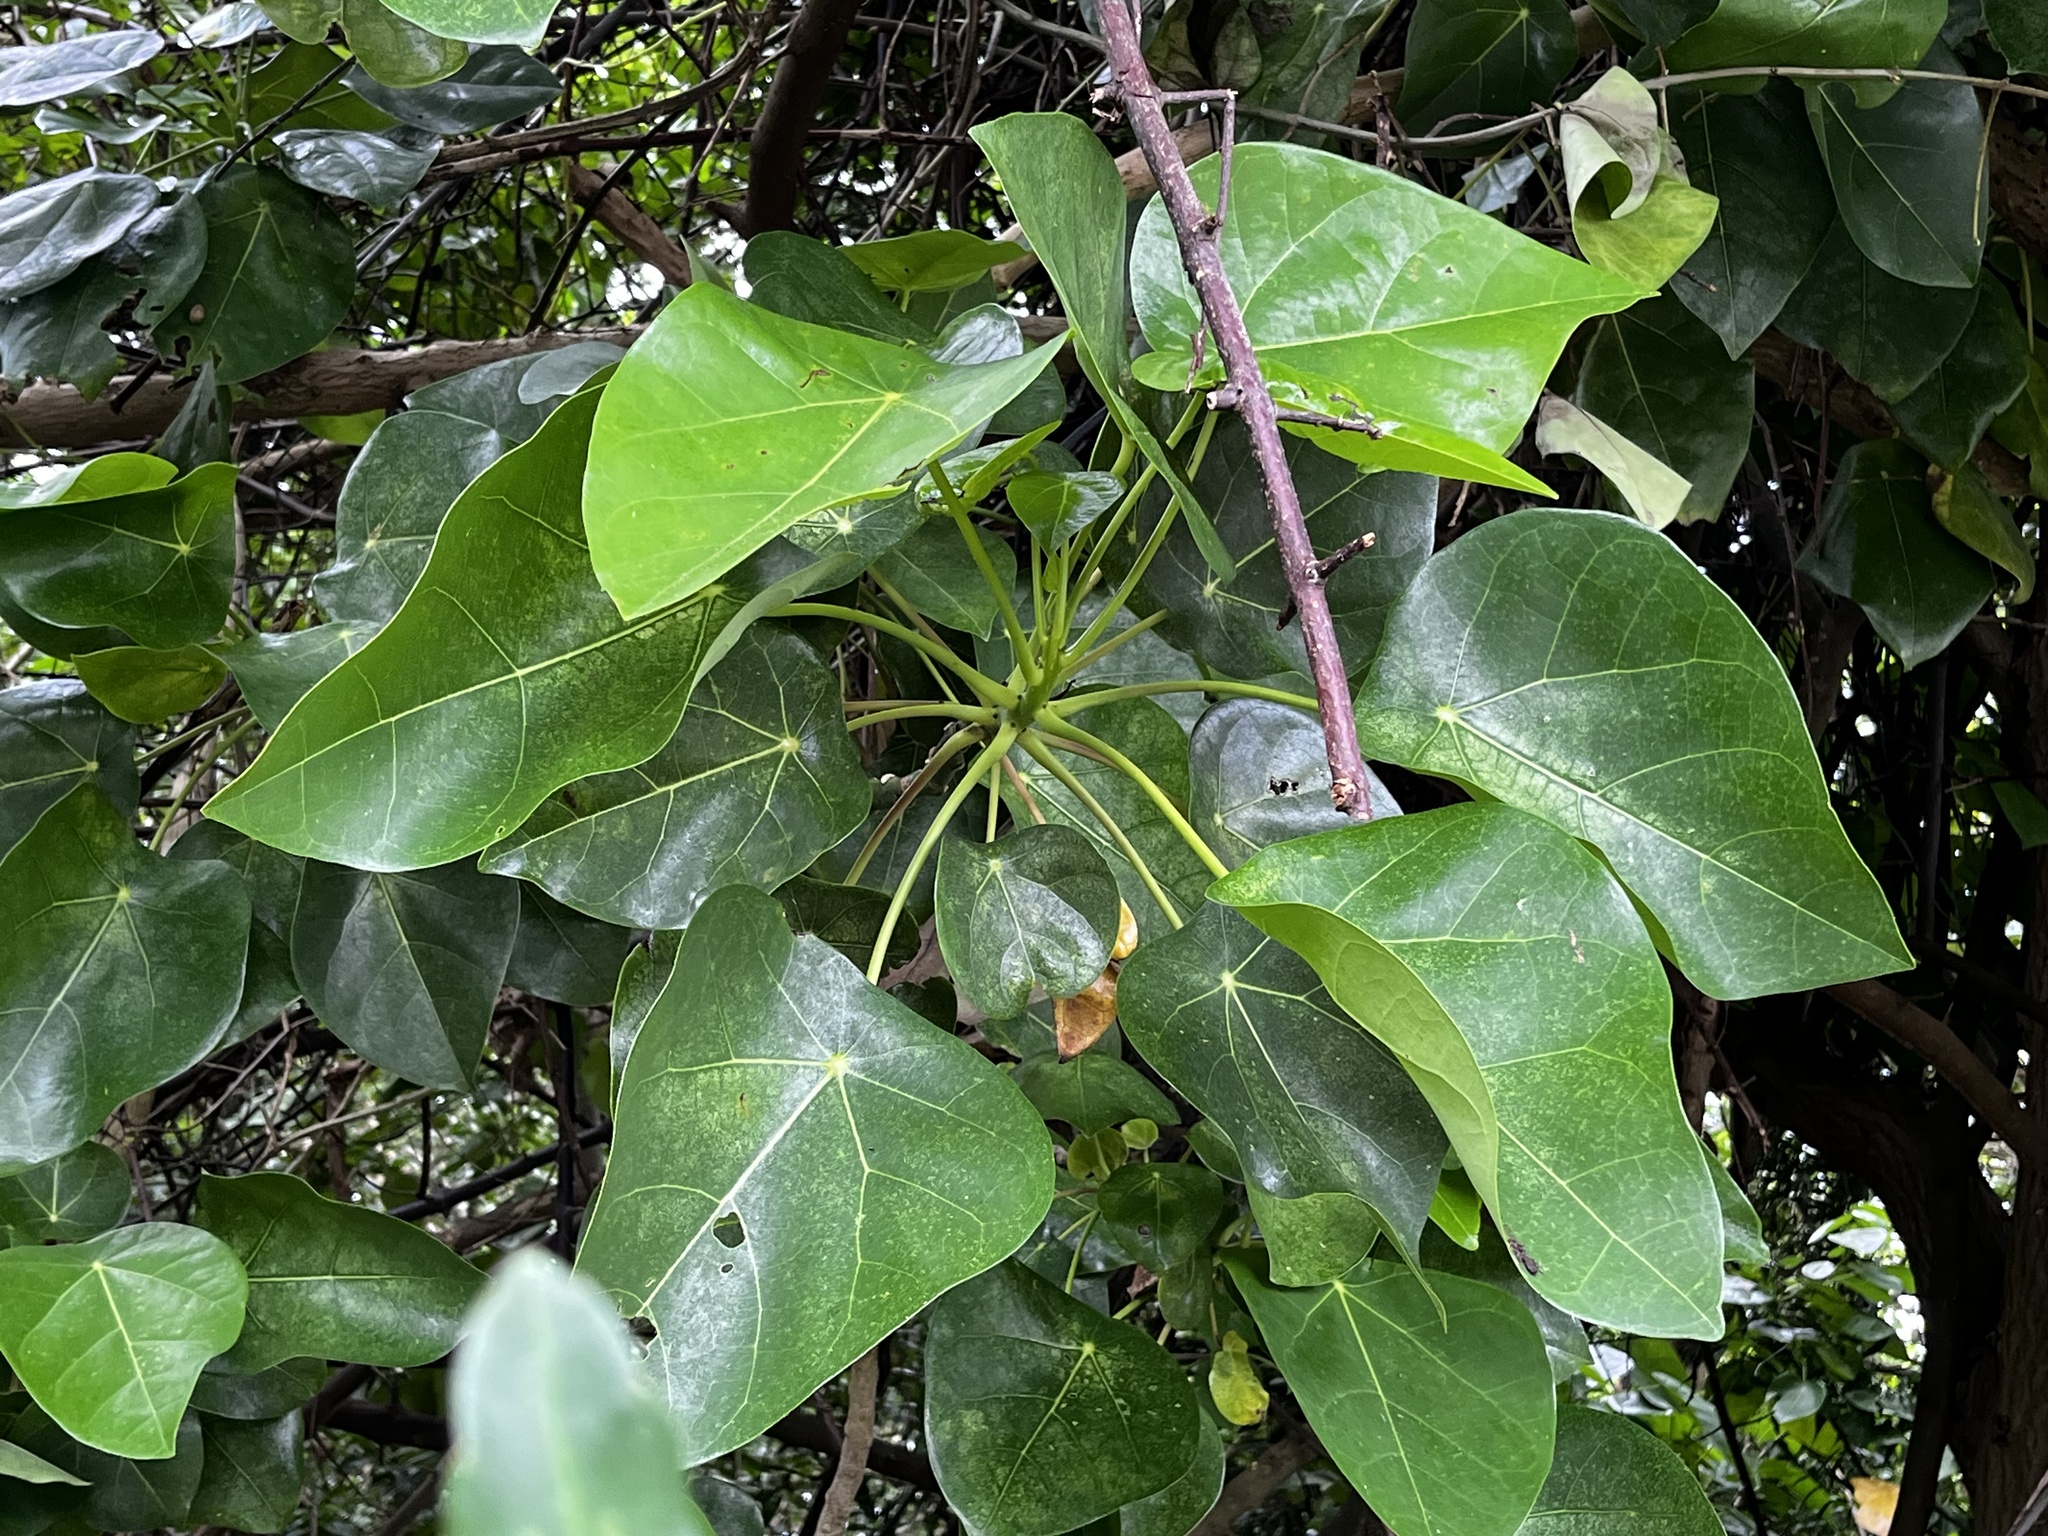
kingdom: Plantae
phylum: Tracheophyta
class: Magnoliopsida
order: Laurales
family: Hernandiaceae
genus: Hernandia
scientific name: Hernandia nymphaeifolia
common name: Sea hearse
